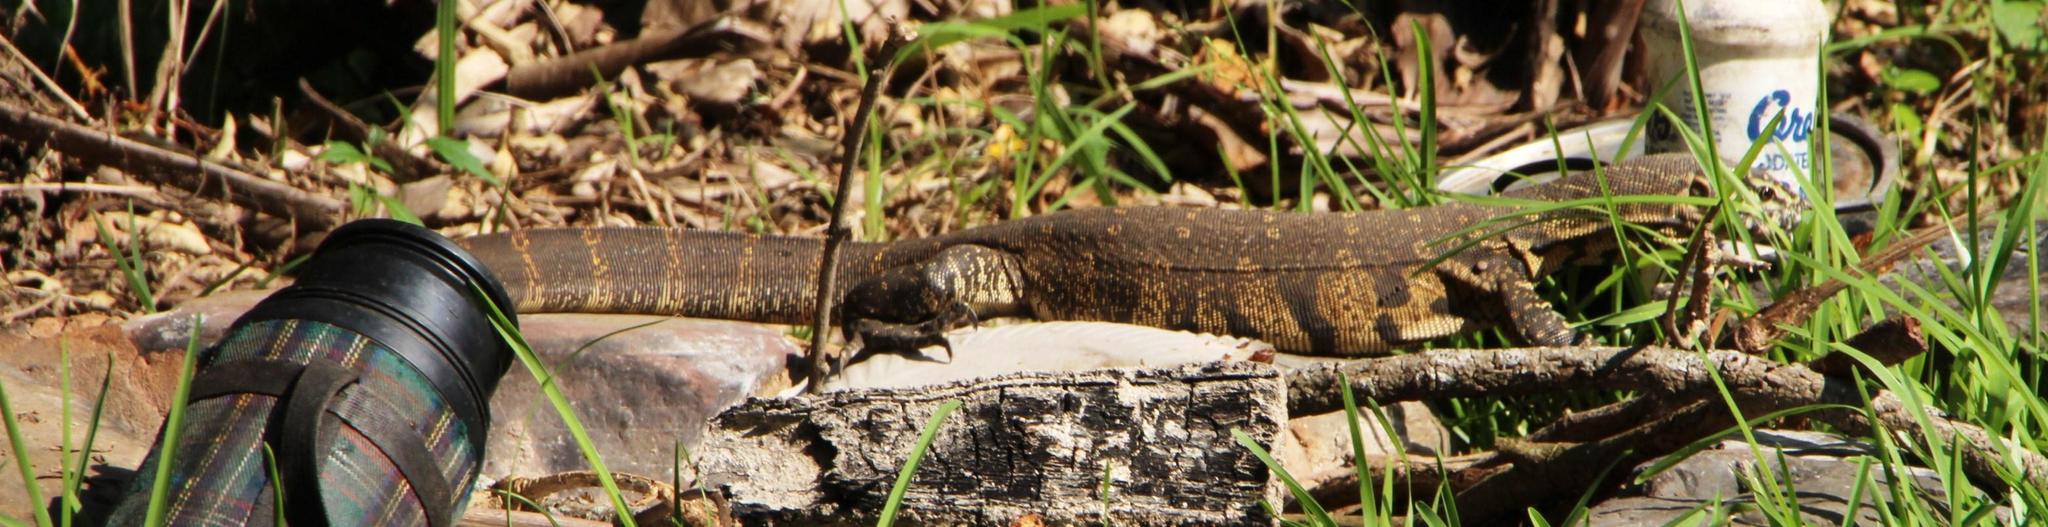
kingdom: Animalia
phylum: Chordata
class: Squamata
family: Varanidae
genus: Varanus
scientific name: Varanus niloticus
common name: Nile monitor
